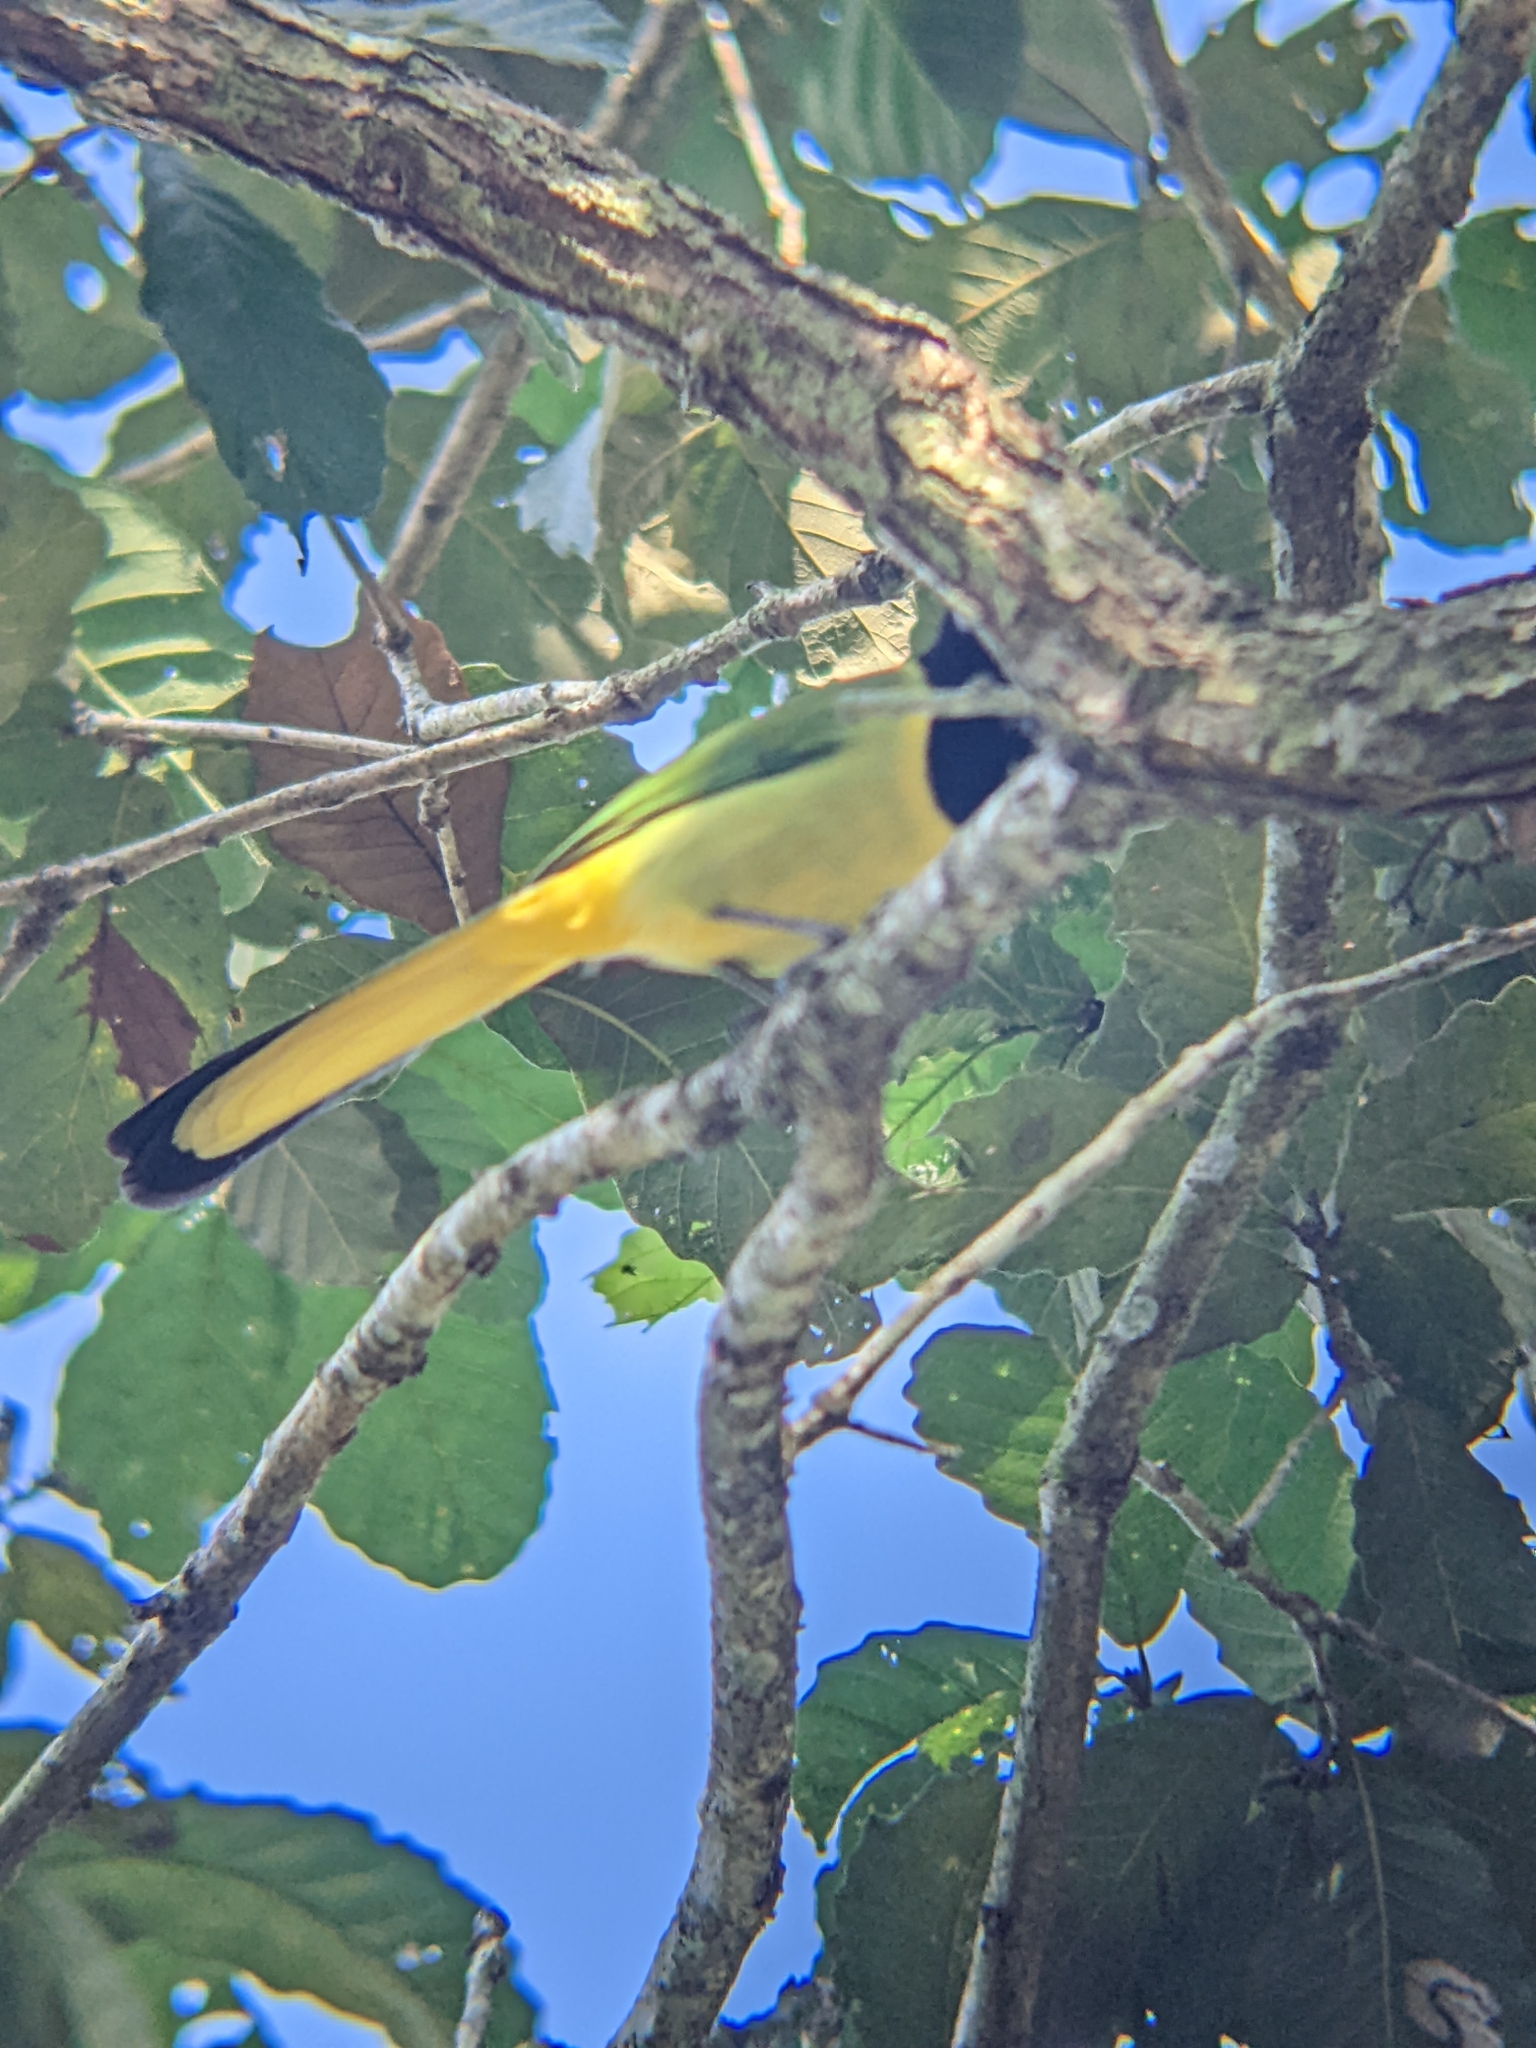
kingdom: Animalia
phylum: Chordata
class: Aves
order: Passeriformes
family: Corvidae
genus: Cyanocorax
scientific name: Cyanocorax yncas
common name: Green jay
